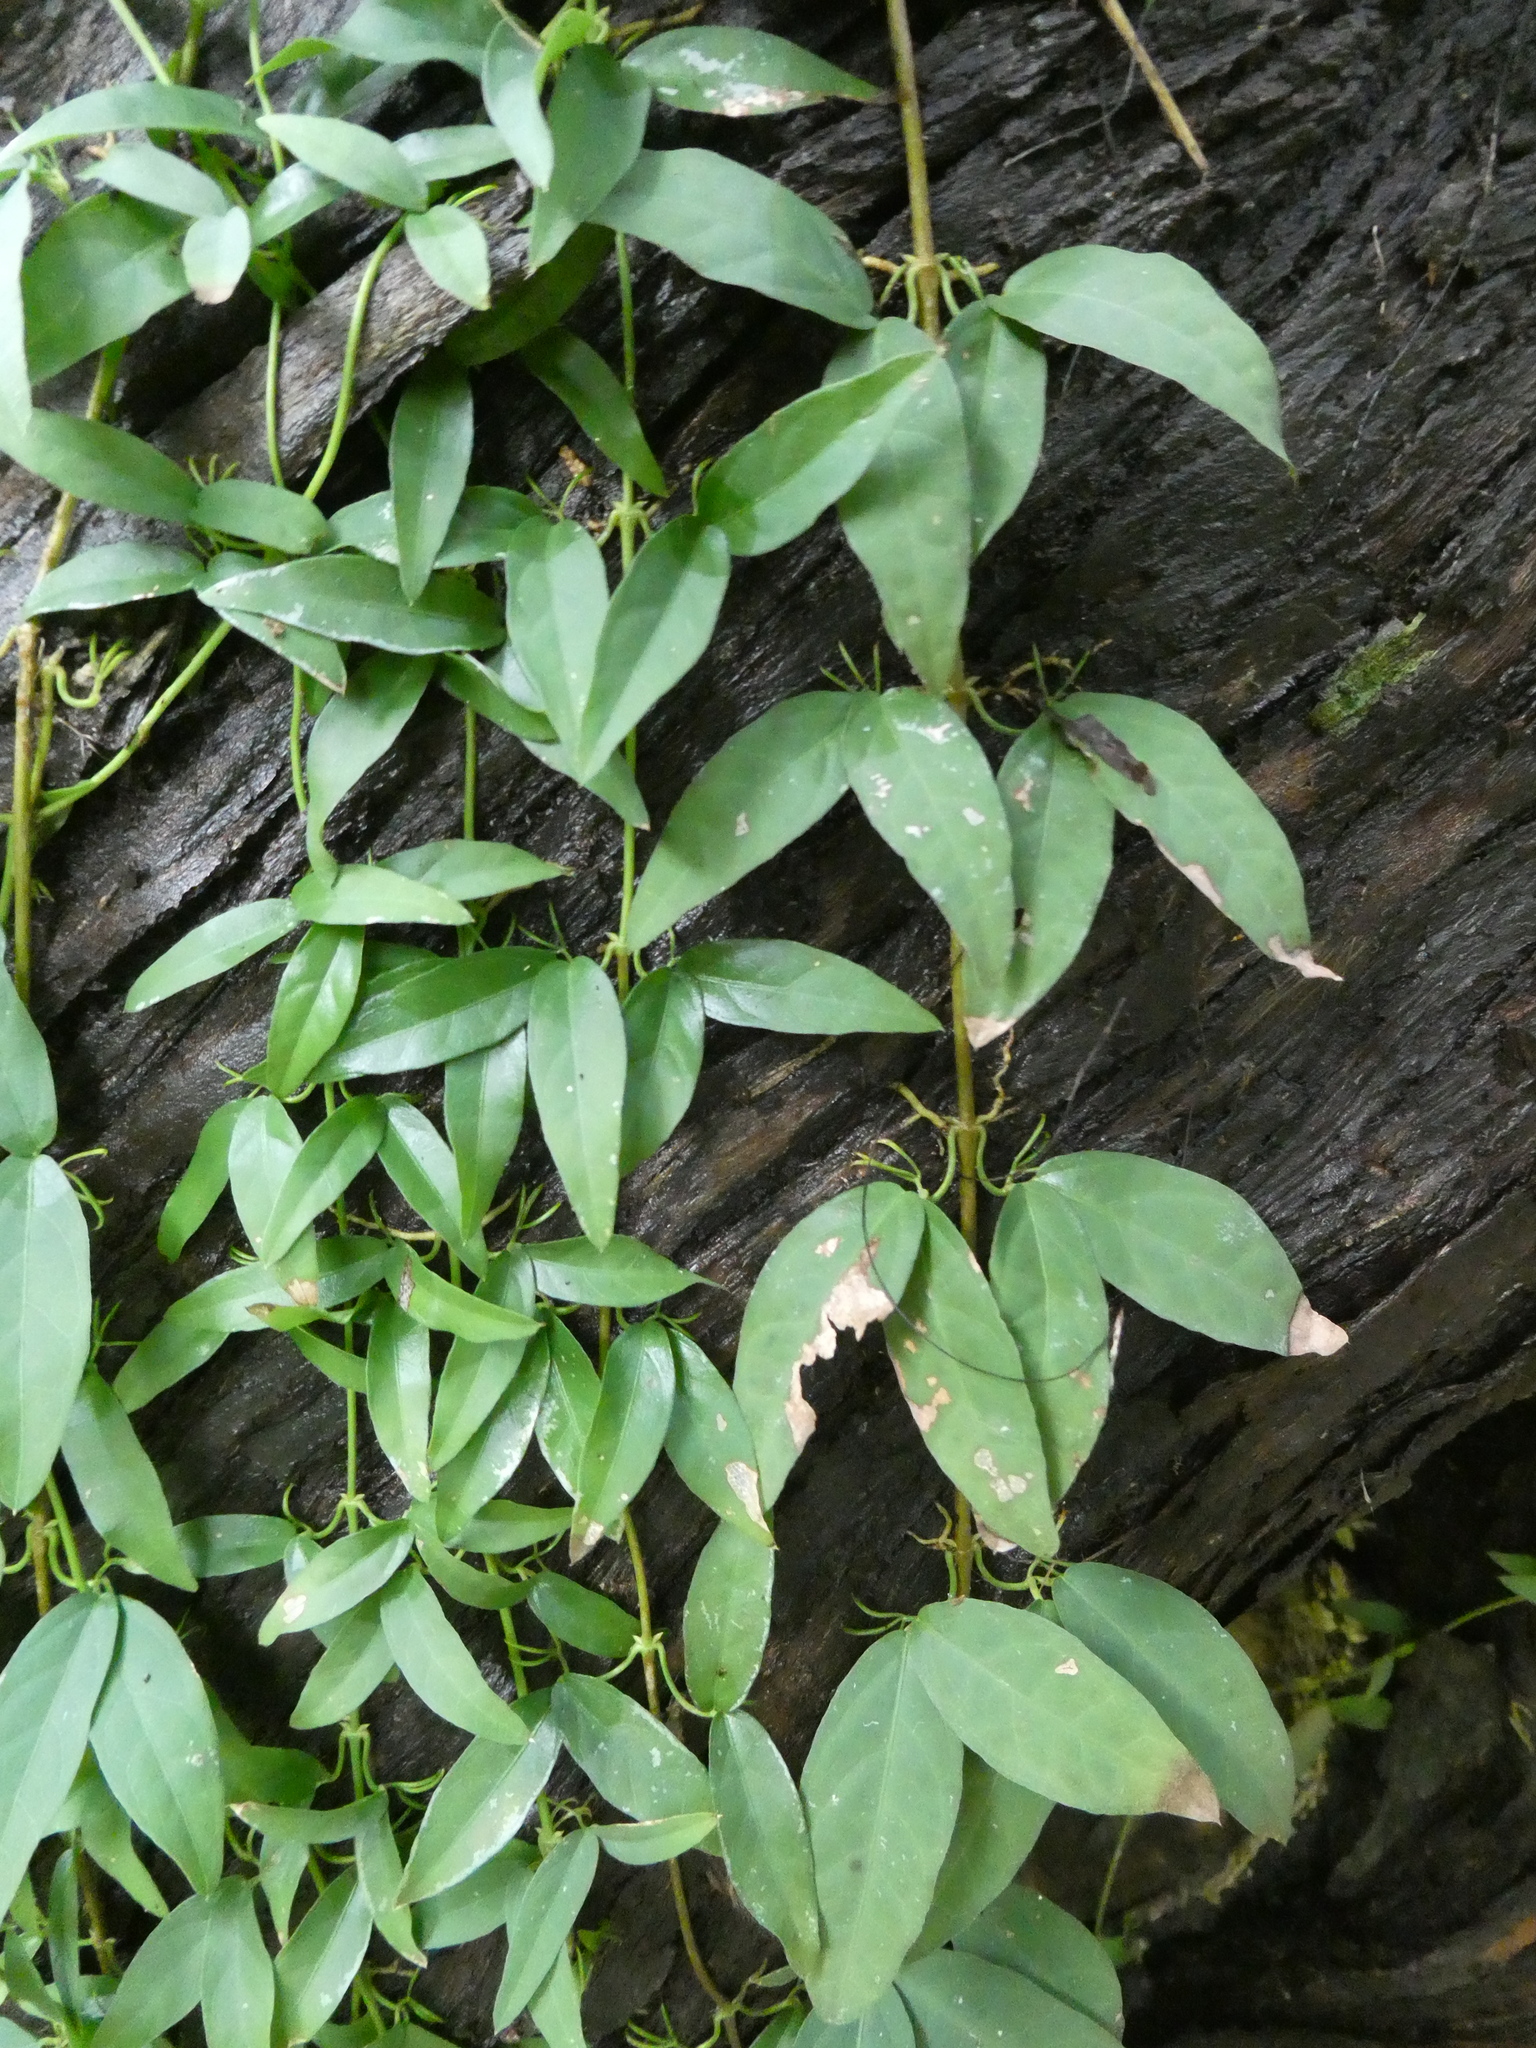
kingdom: Plantae
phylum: Tracheophyta
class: Magnoliopsida
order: Lamiales
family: Bignoniaceae
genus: Dolichandra
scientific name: Dolichandra unguis-cati
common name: Catclaw vine
